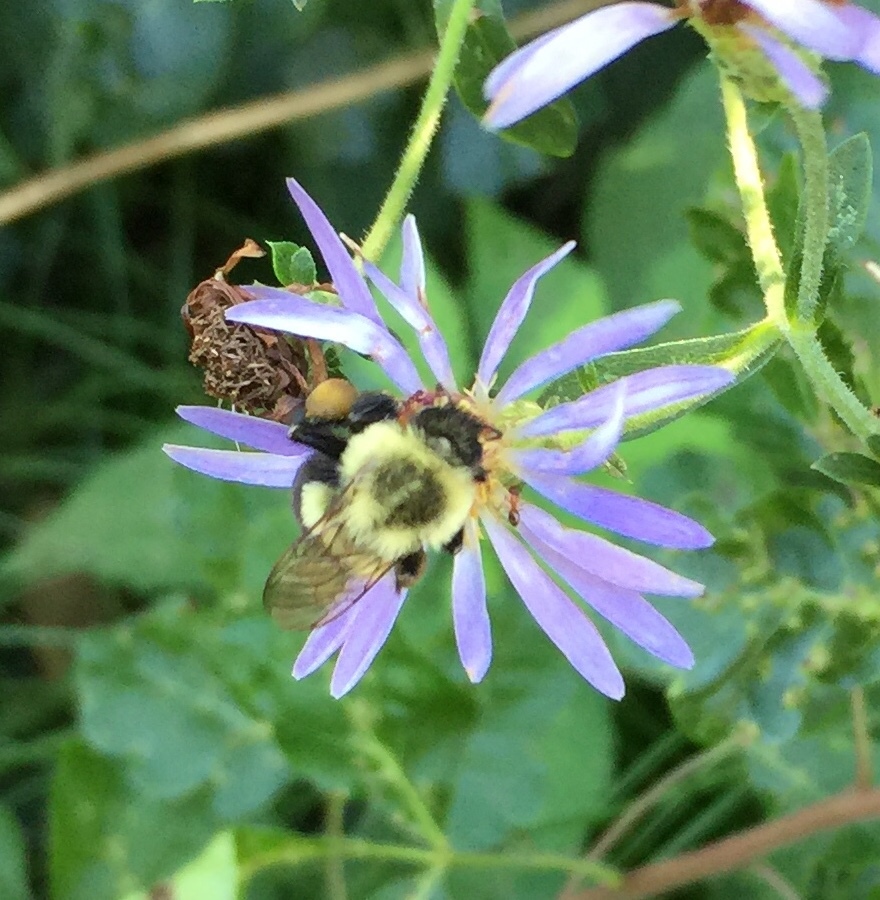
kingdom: Animalia
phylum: Arthropoda
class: Insecta
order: Hymenoptera
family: Apidae
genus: Bombus
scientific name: Bombus impatiens
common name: Common eastern bumble bee
